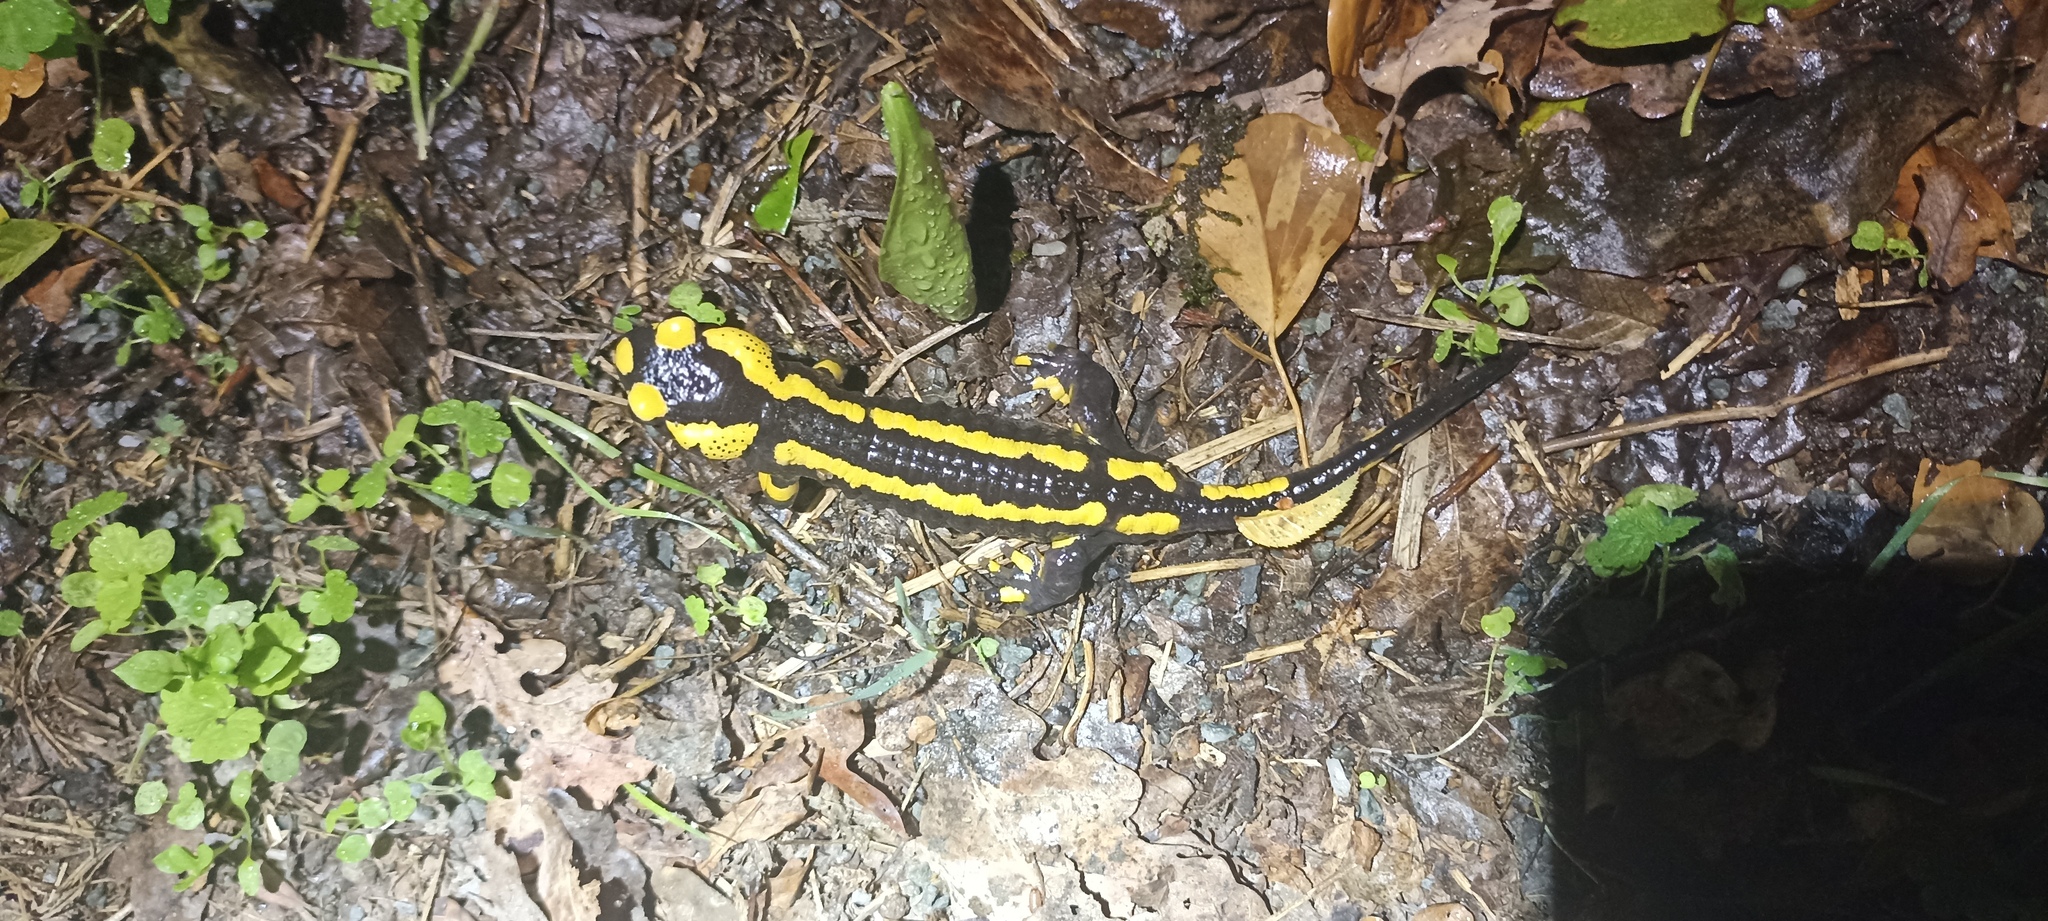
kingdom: Animalia
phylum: Chordata
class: Amphibia
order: Caudata
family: Salamandridae
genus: Salamandra
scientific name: Salamandra salamandra
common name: Fire salamander
